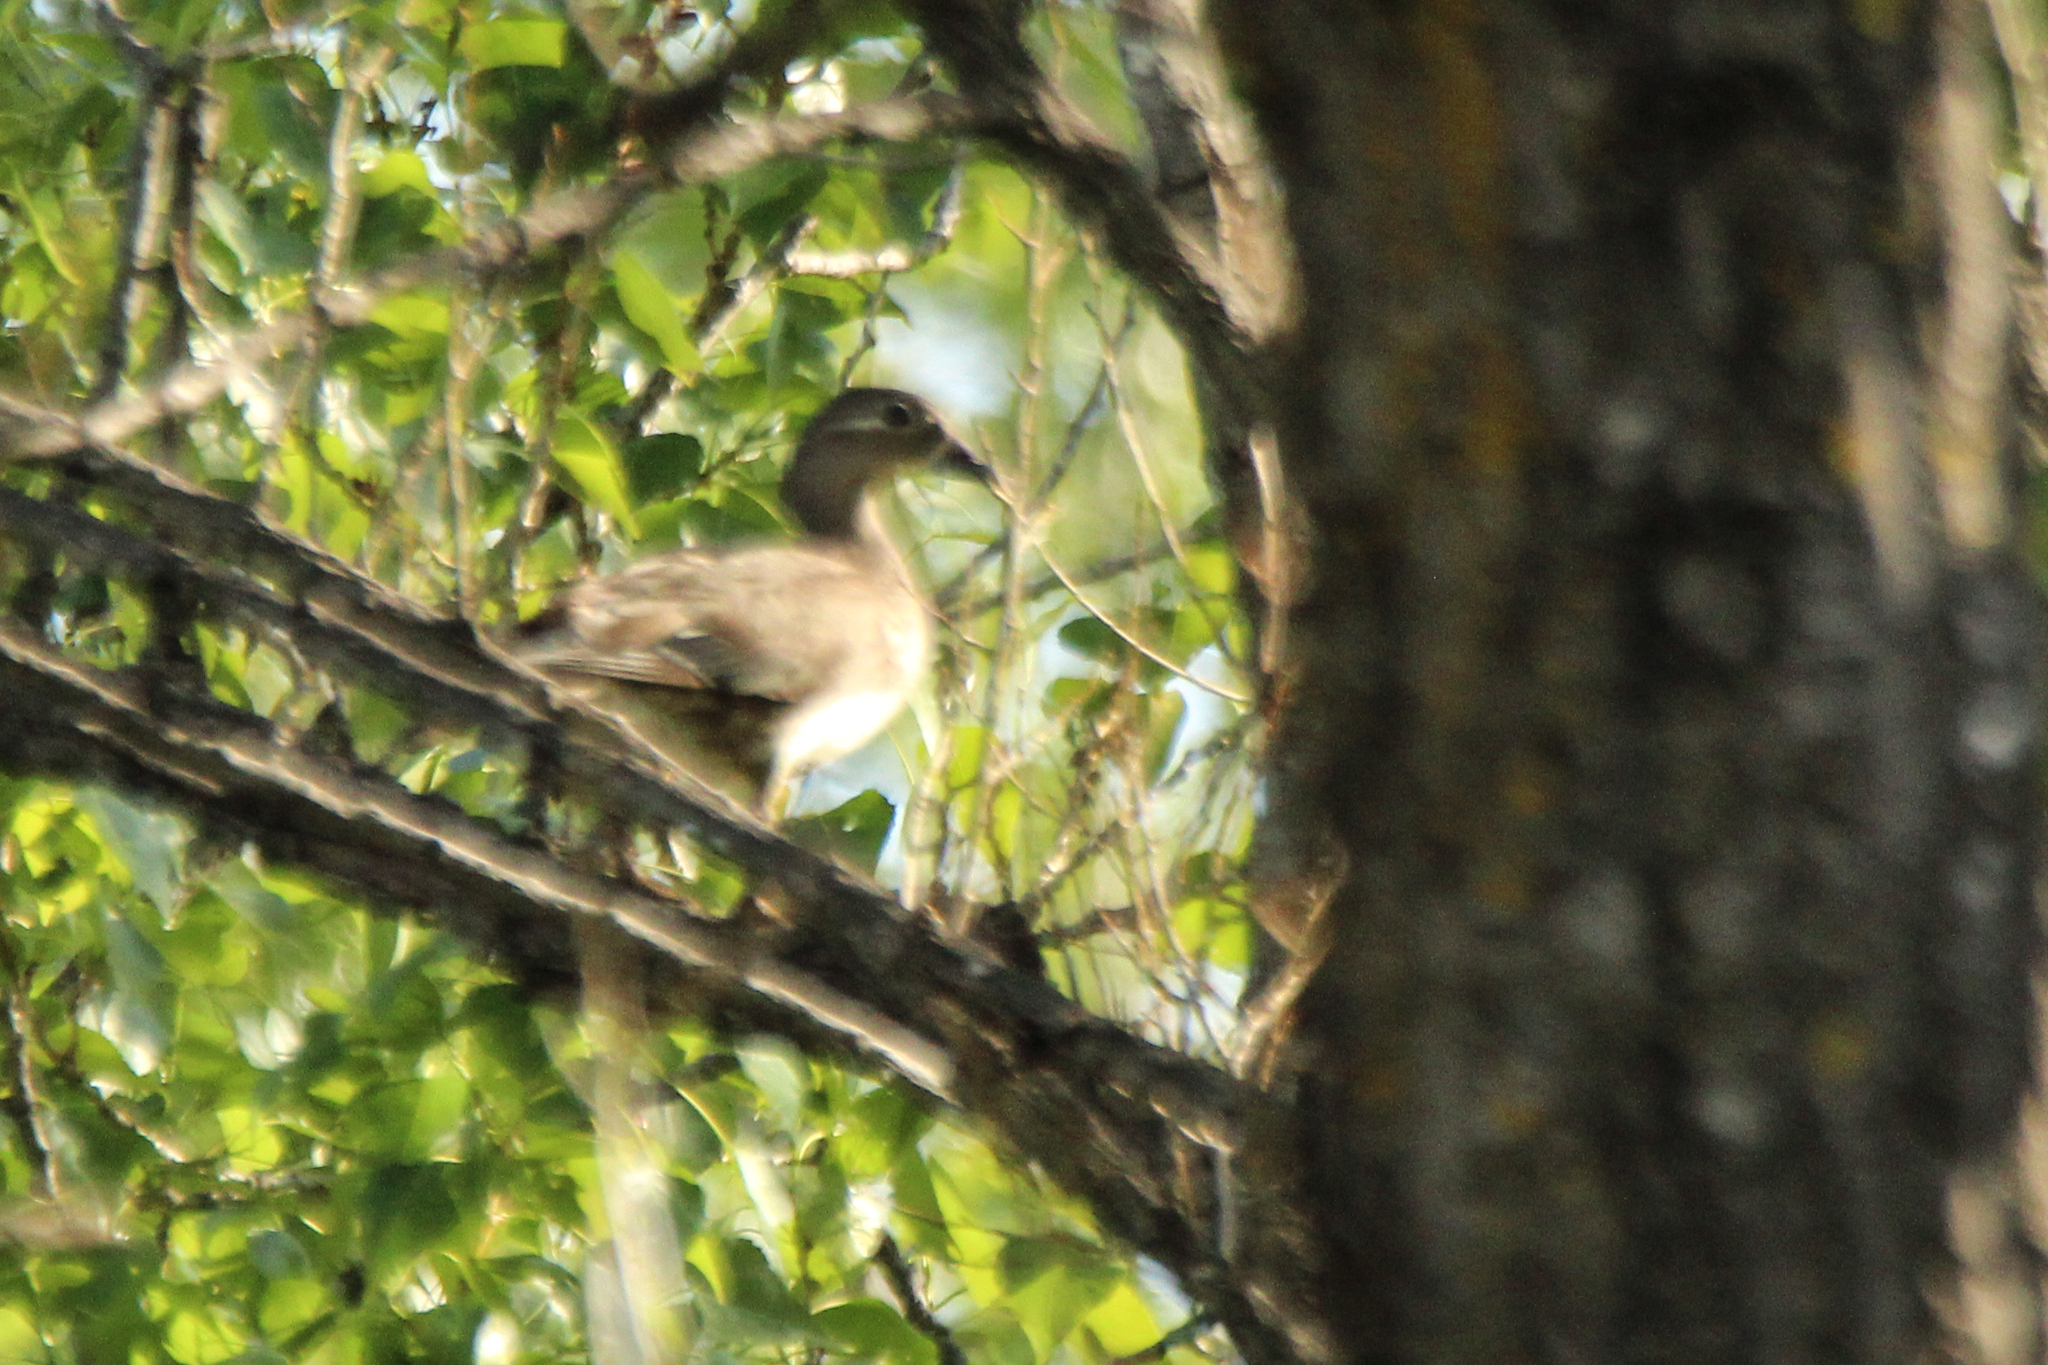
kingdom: Animalia
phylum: Chordata
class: Aves
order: Anseriformes
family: Anatidae
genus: Aix
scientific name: Aix galericulata
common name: Mandarin duck
